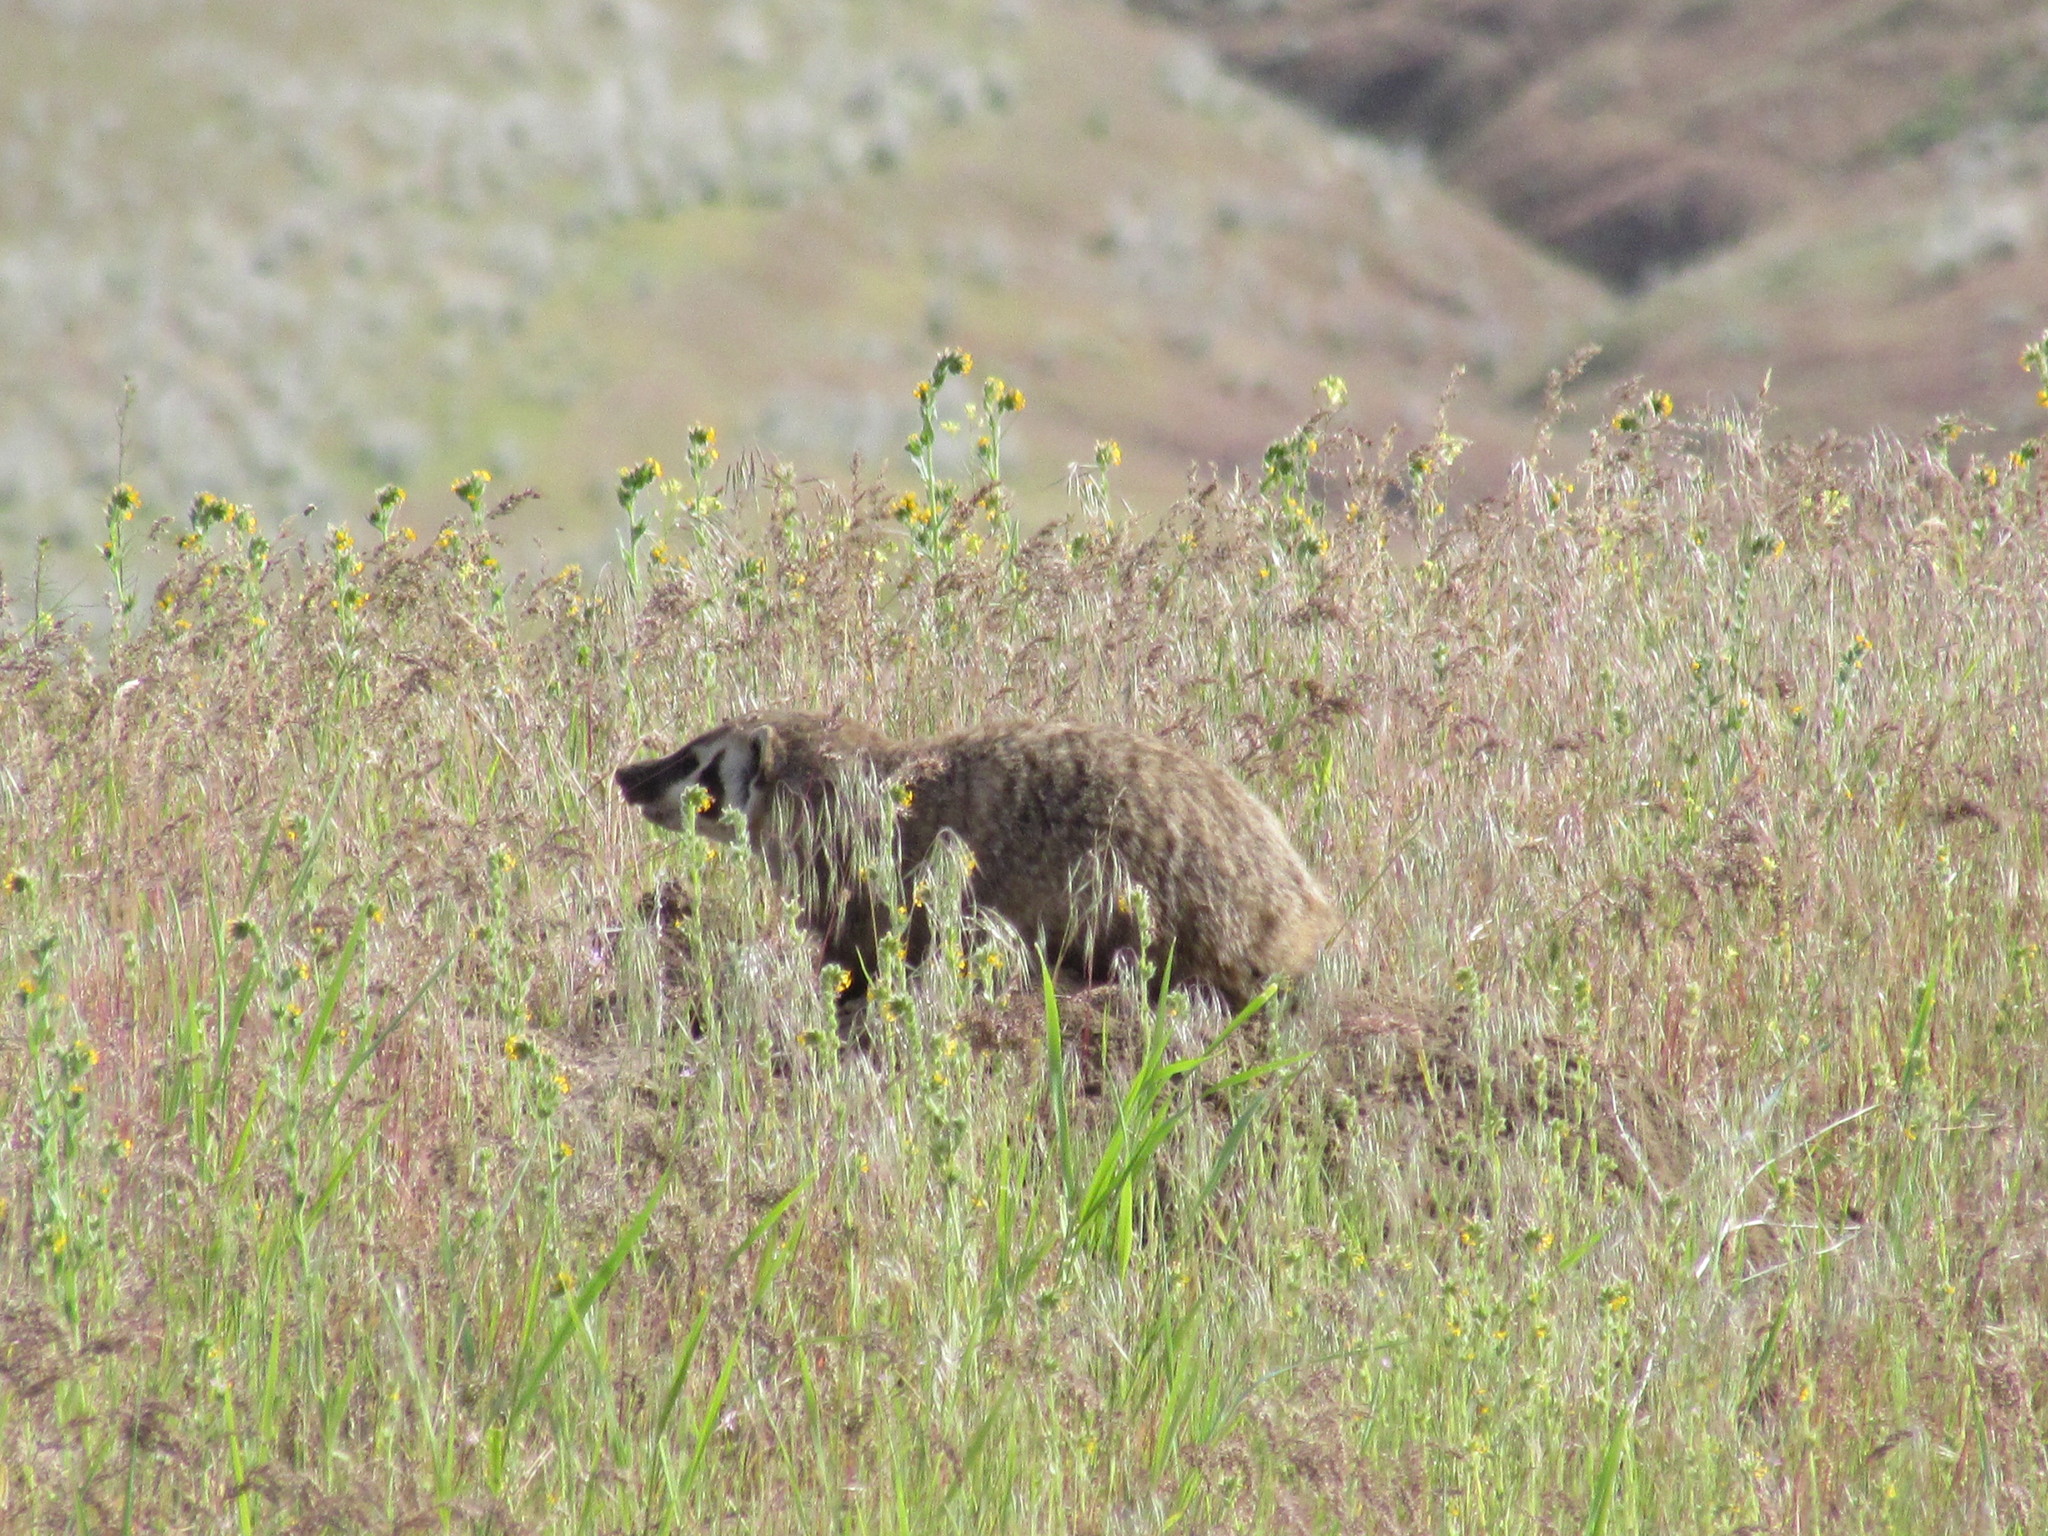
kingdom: Animalia
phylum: Chordata
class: Mammalia
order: Carnivora
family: Mustelidae
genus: Taxidea
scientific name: Taxidea taxus
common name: American badger
